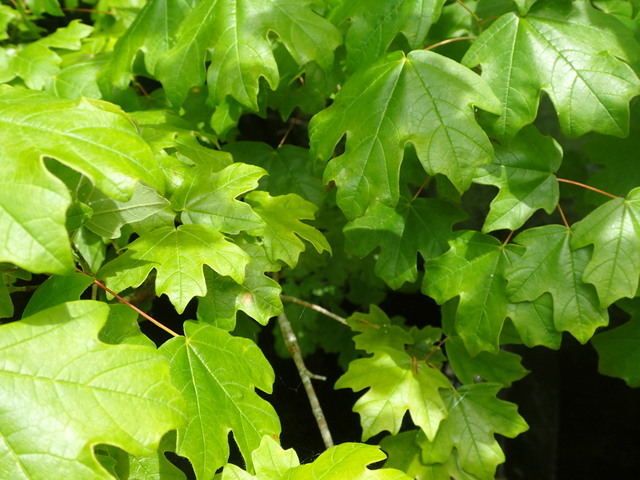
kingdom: Plantae
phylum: Tracheophyta
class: Magnoliopsida
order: Sapindales
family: Sapindaceae
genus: Acer
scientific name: Acer floridanum
